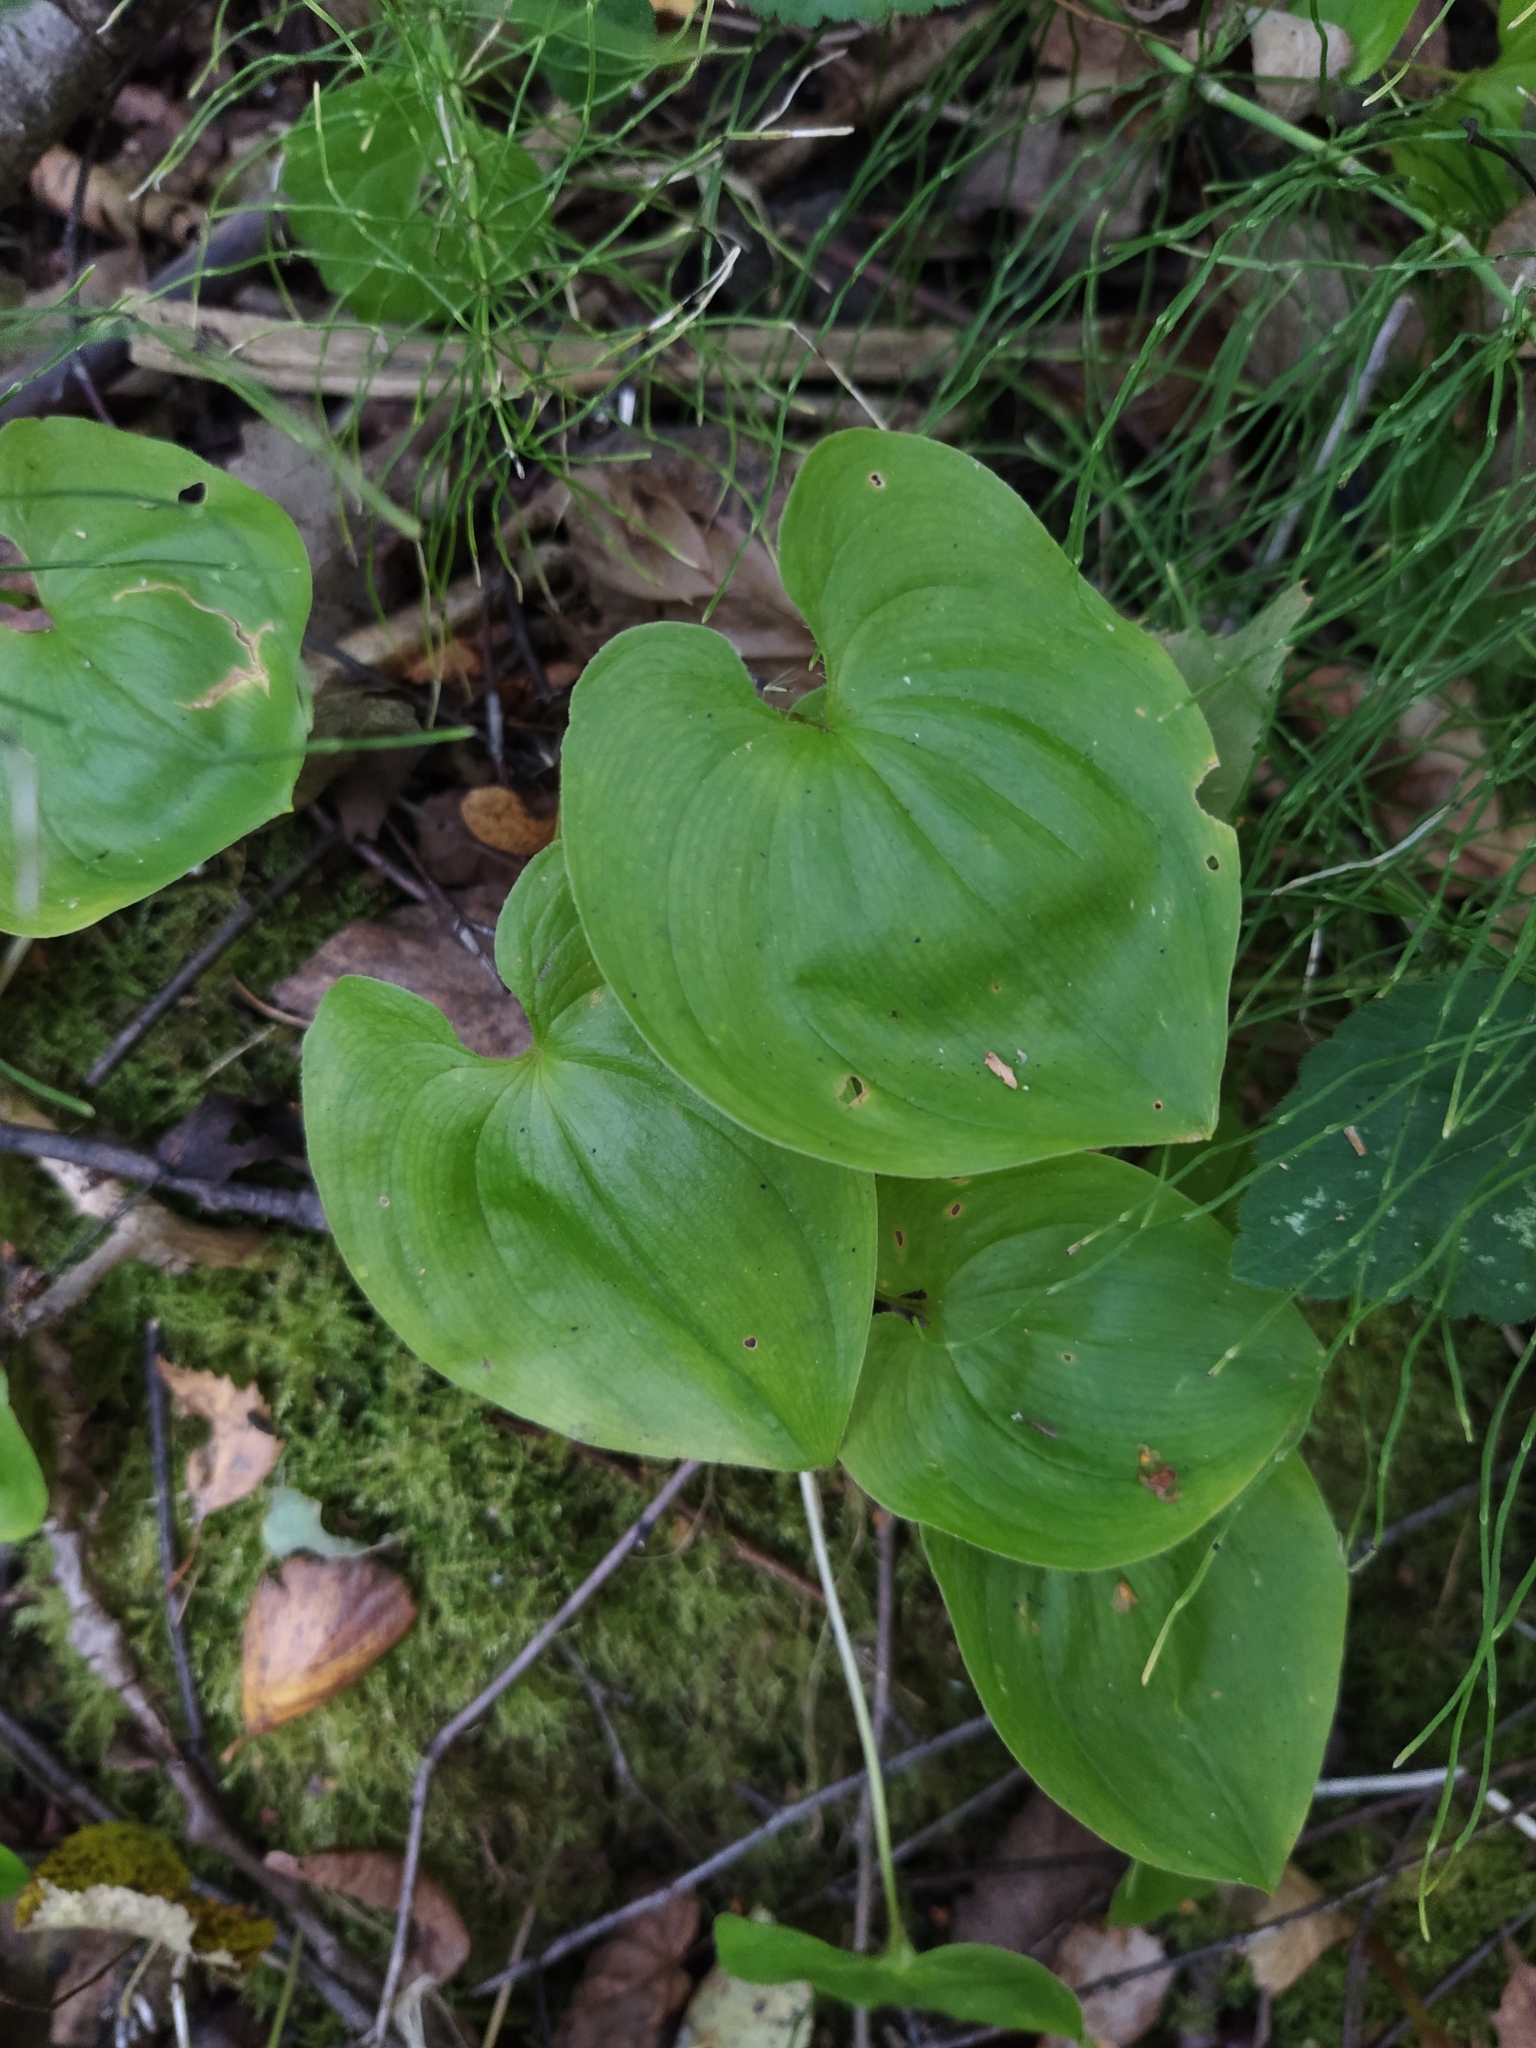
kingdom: Plantae
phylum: Tracheophyta
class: Liliopsida
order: Asparagales
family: Asparagaceae
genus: Maianthemum
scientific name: Maianthemum bifolium
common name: May lily
